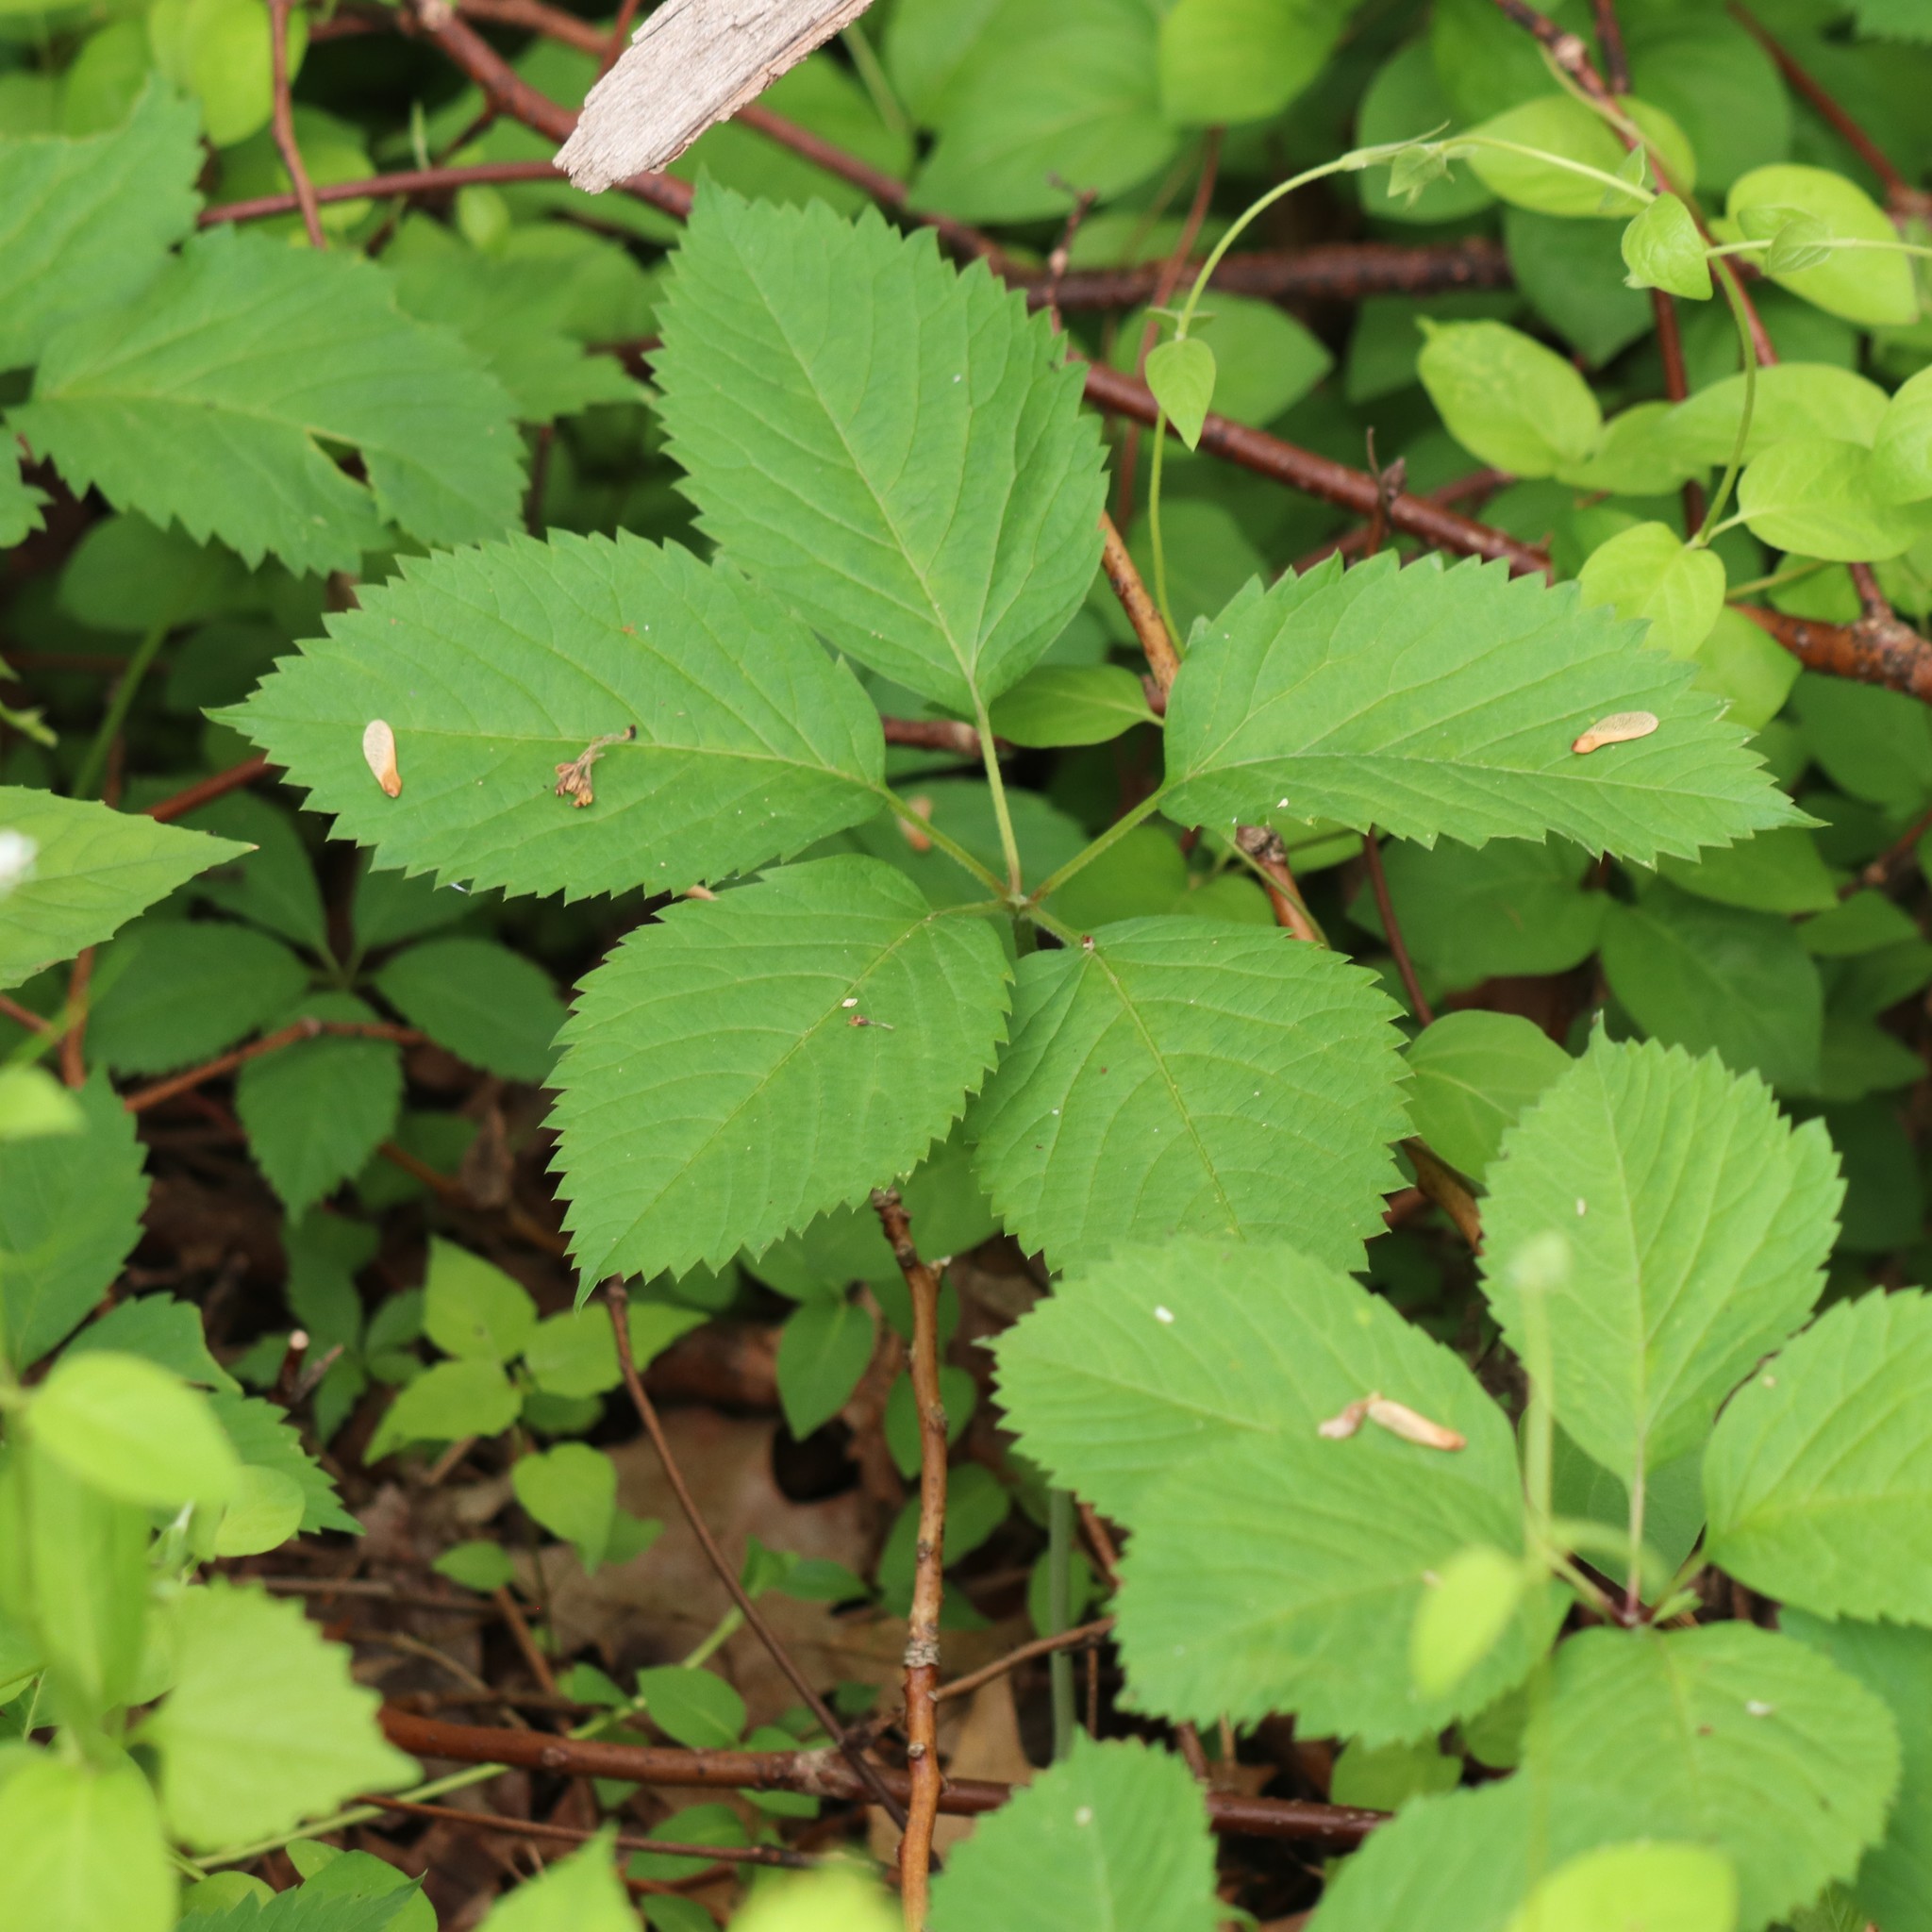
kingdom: Plantae
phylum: Tracheophyta
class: Magnoliopsida
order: Vitales
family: Vitaceae
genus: Parthenocissus
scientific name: Parthenocissus inserta
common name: False virginia-creeper
